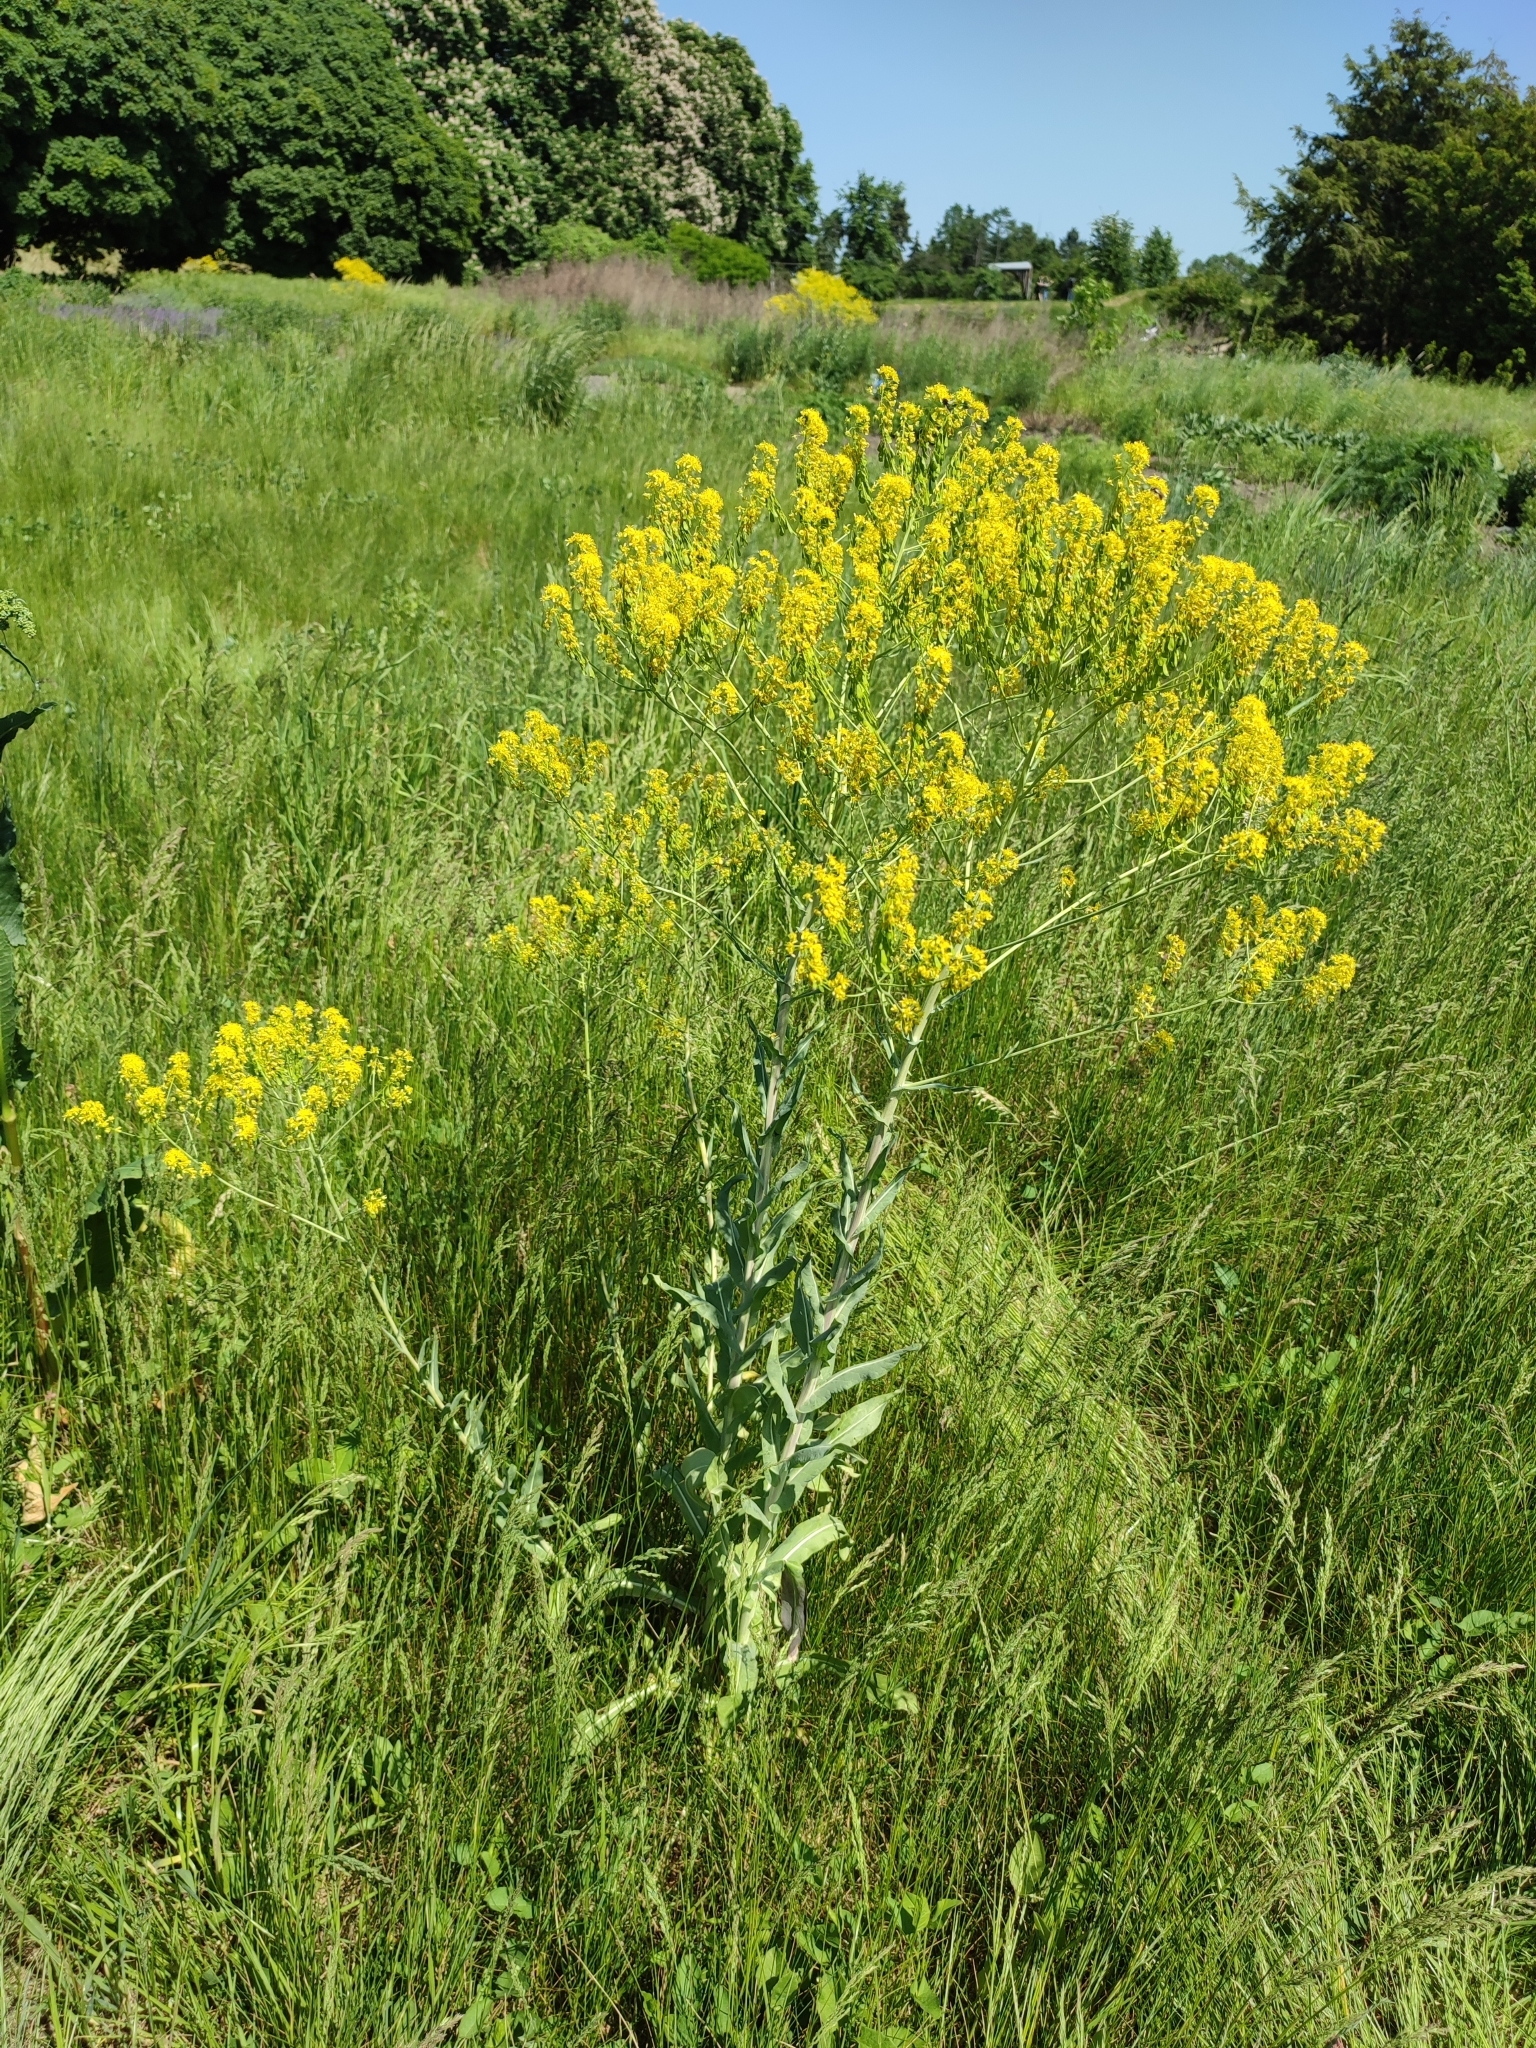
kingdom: Plantae
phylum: Tracheophyta
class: Magnoliopsida
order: Brassicales
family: Brassicaceae
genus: Isatis
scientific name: Isatis tinctoria
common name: Woad
